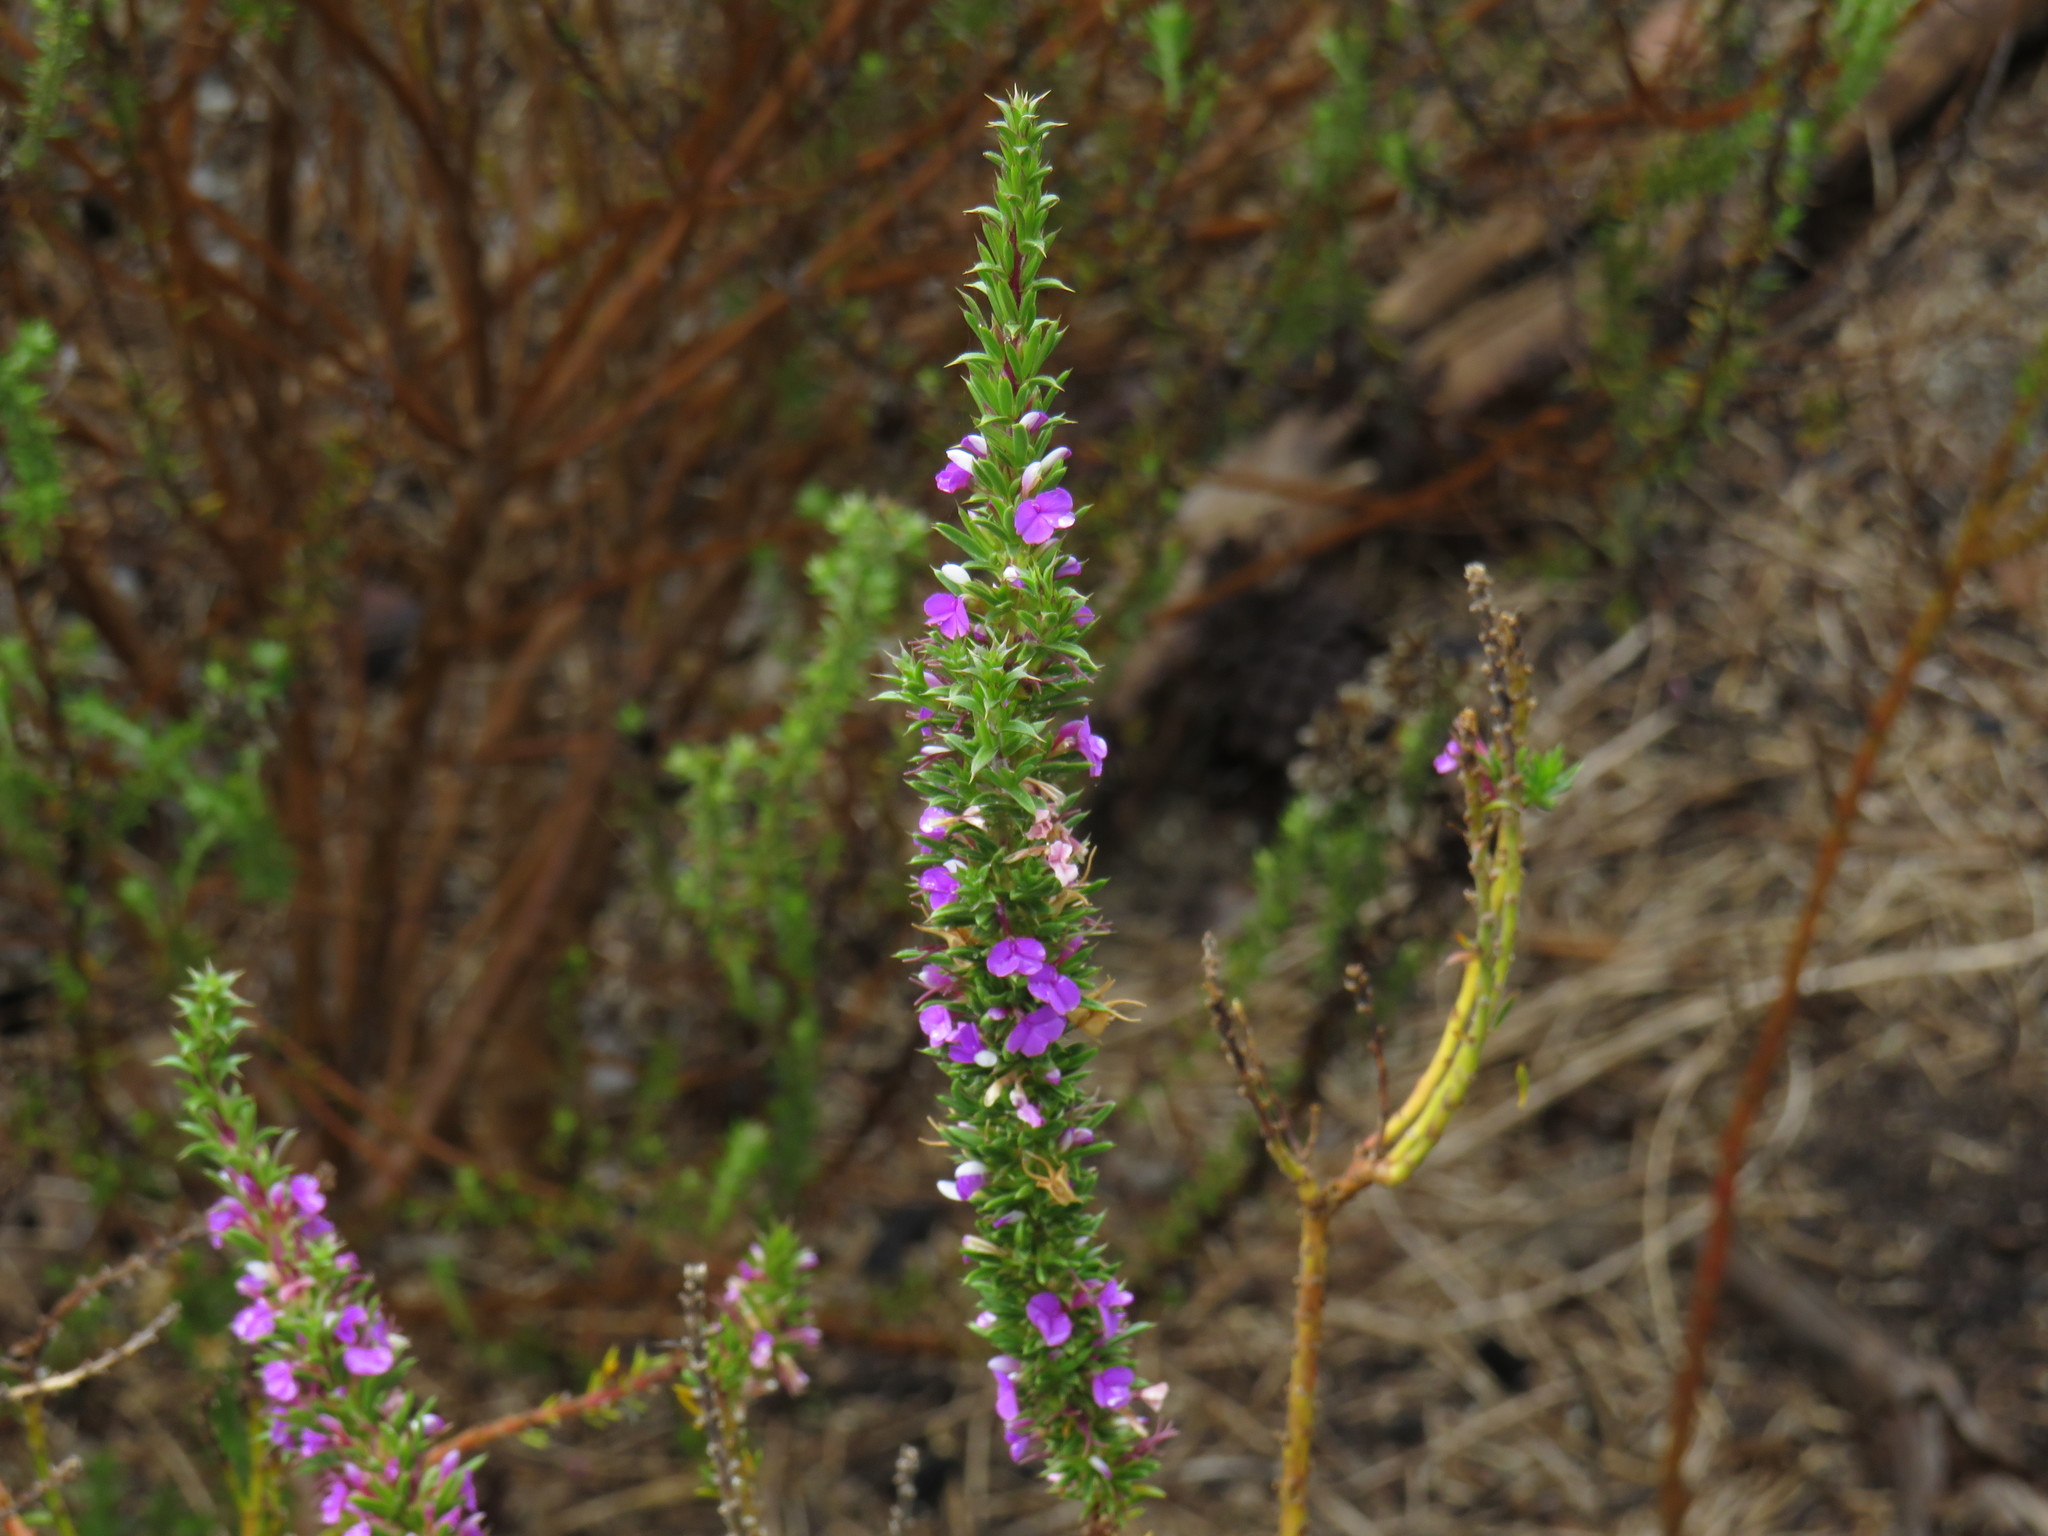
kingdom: Plantae
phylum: Tracheophyta
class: Magnoliopsida
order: Fabales
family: Polygalaceae
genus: Muraltia
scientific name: Muraltia heisteria
